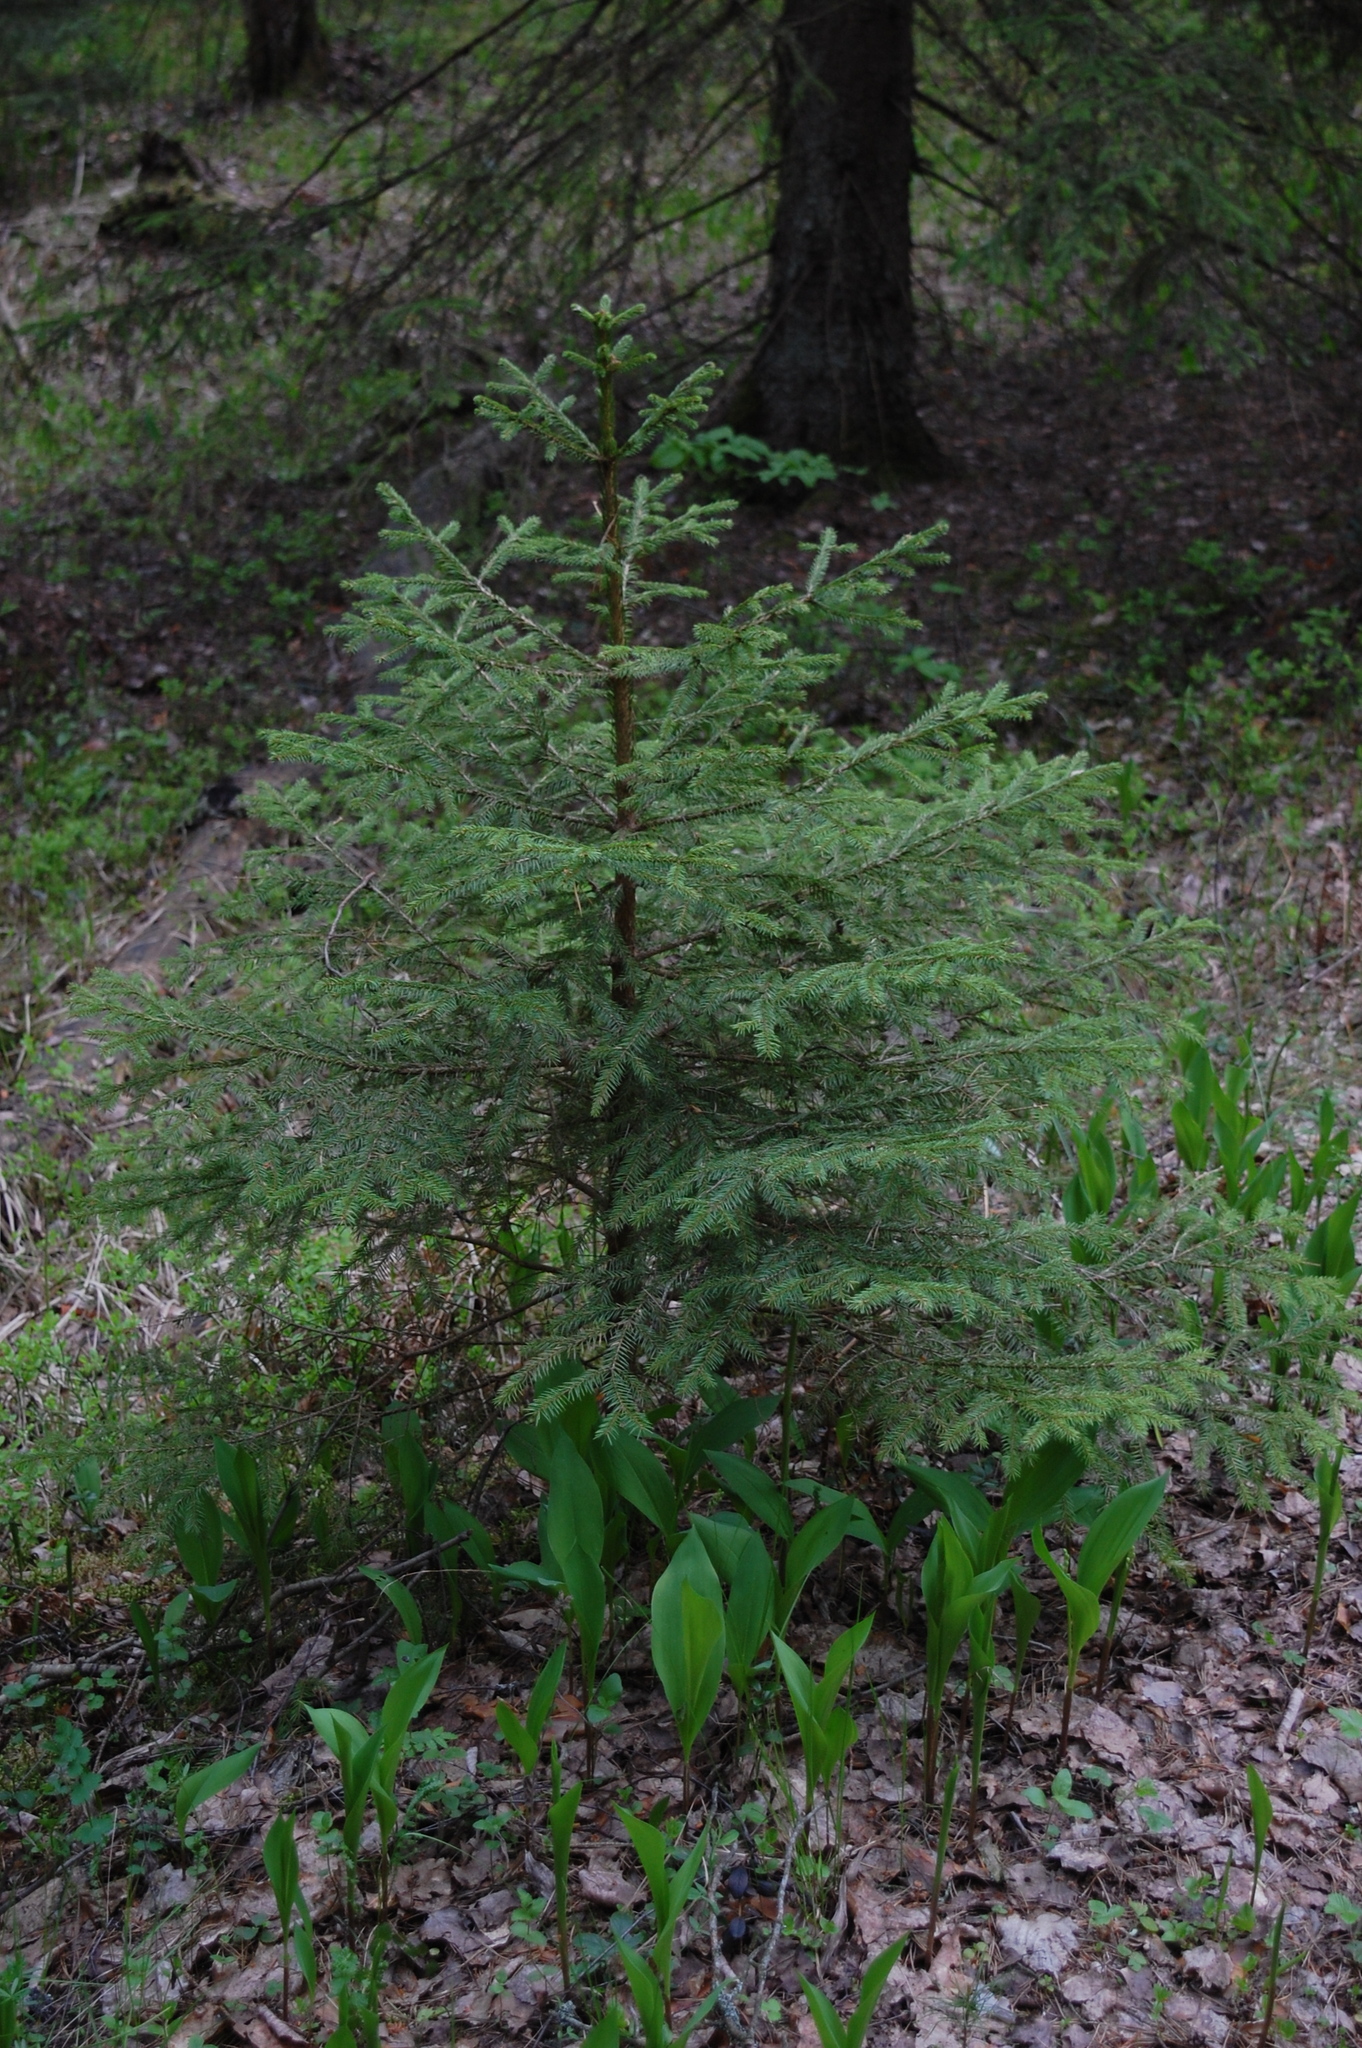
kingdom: Plantae
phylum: Tracheophyta
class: Pinopsida
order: Pinales
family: Pinaceae
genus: Picea
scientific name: Picea abies
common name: Norway spruce
